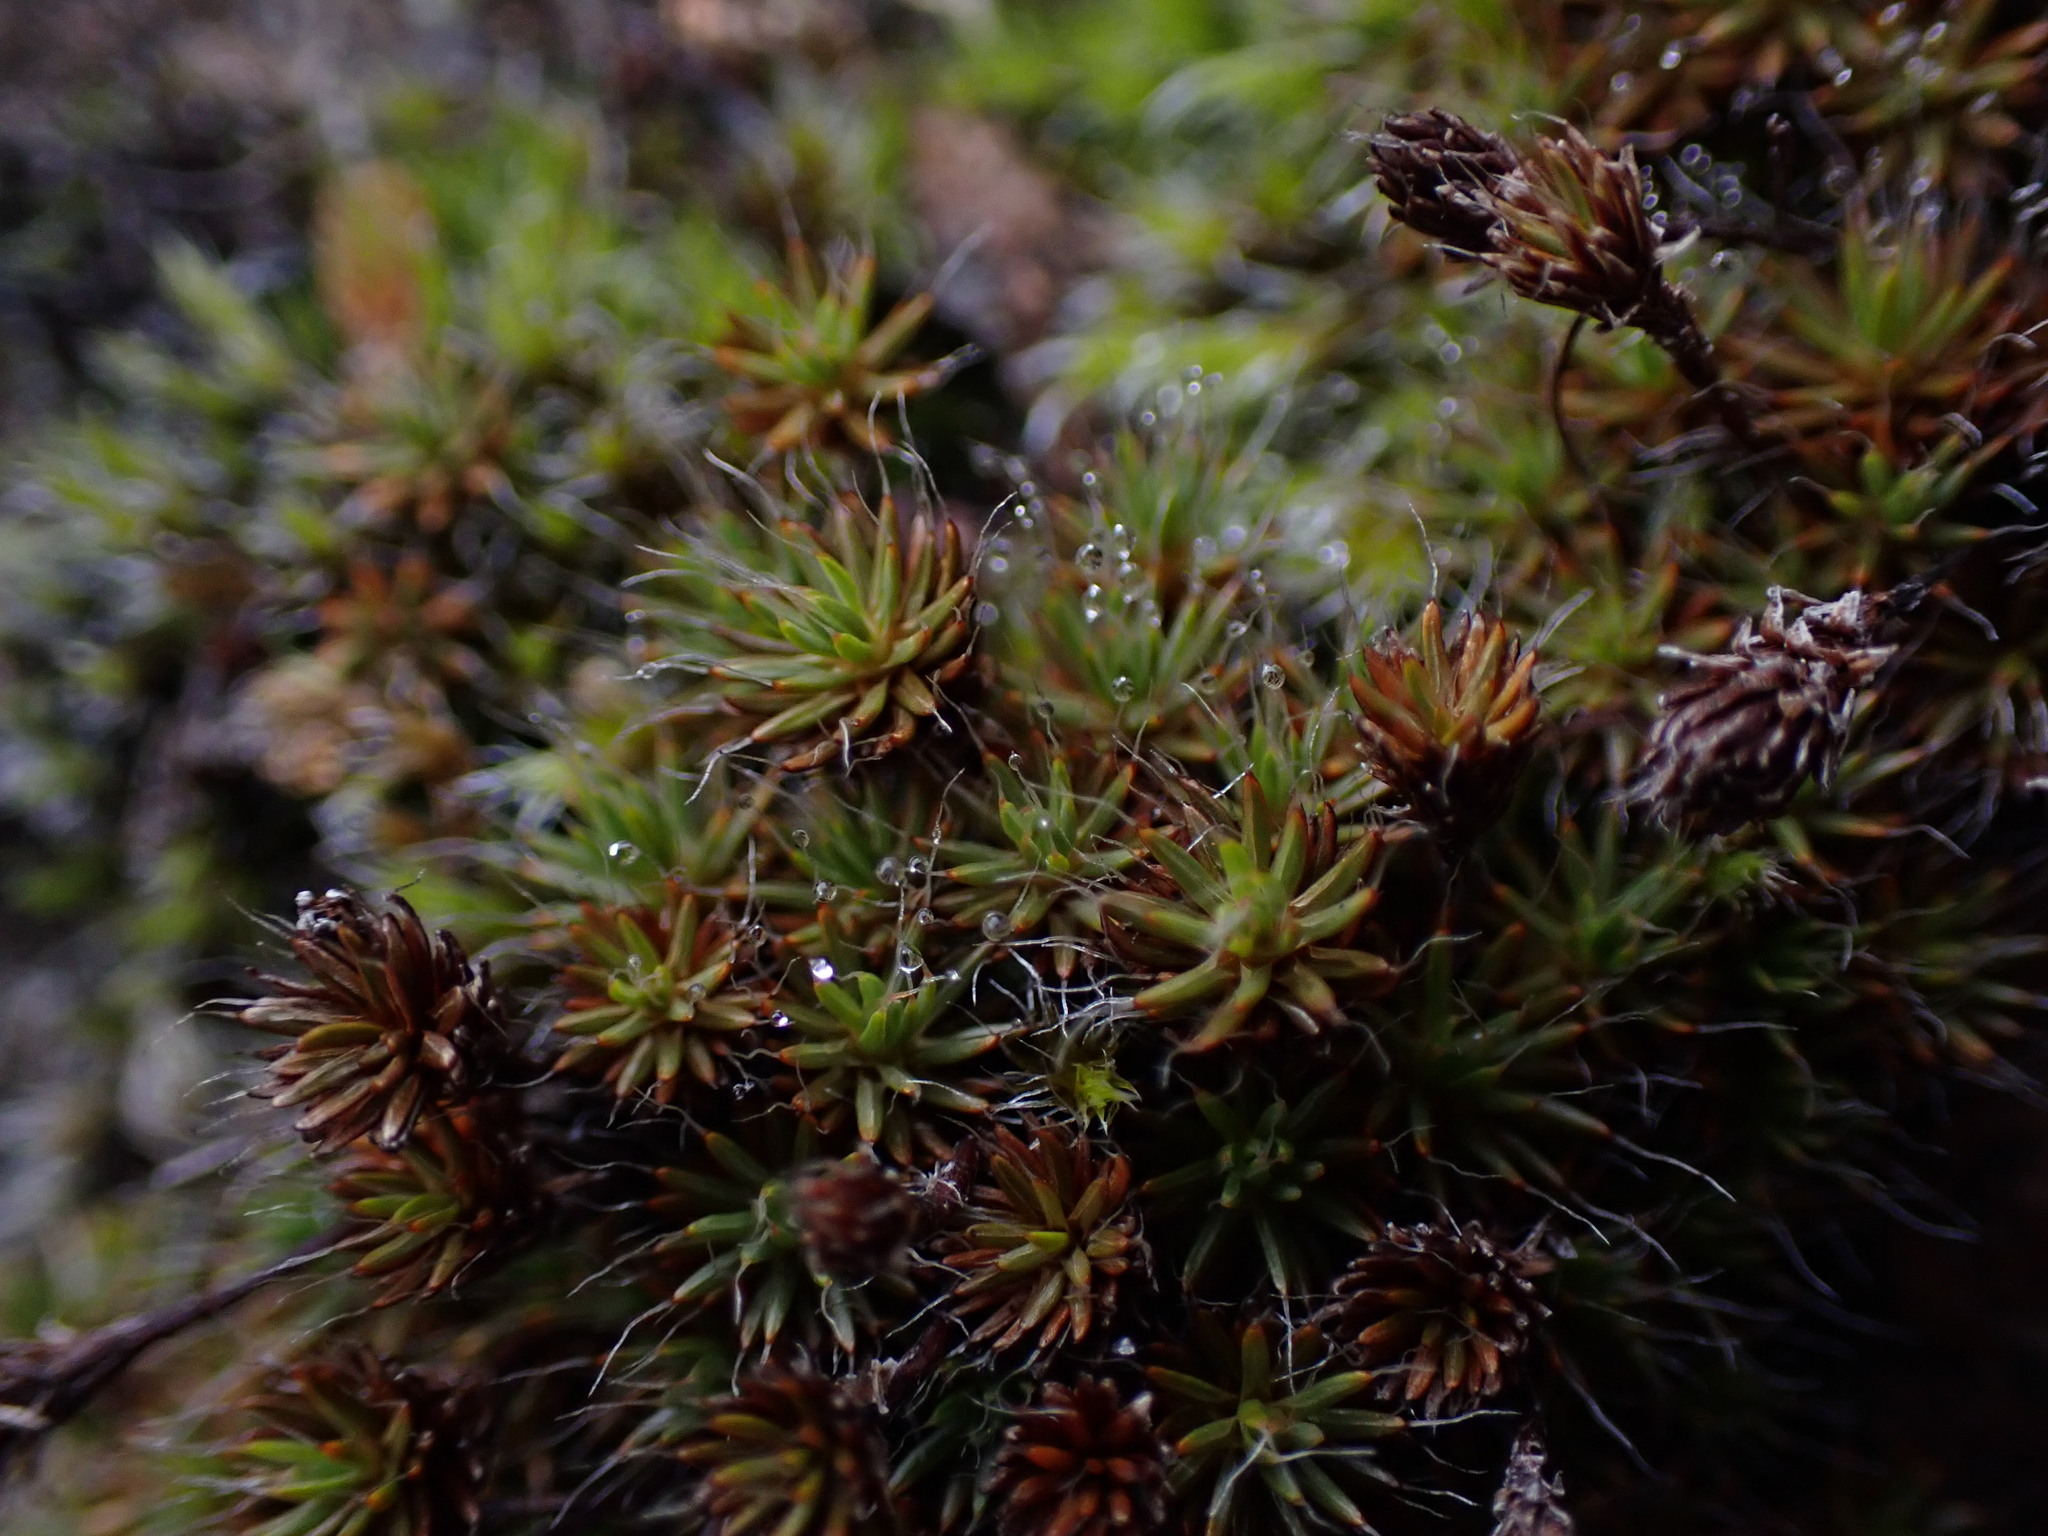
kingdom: Plantae
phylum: Bryophyta
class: Polytrichopsida
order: Polytrichales
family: Polytrichaceae
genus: Polytrichum
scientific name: Polytrichum piliferum
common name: Bristly haircap
